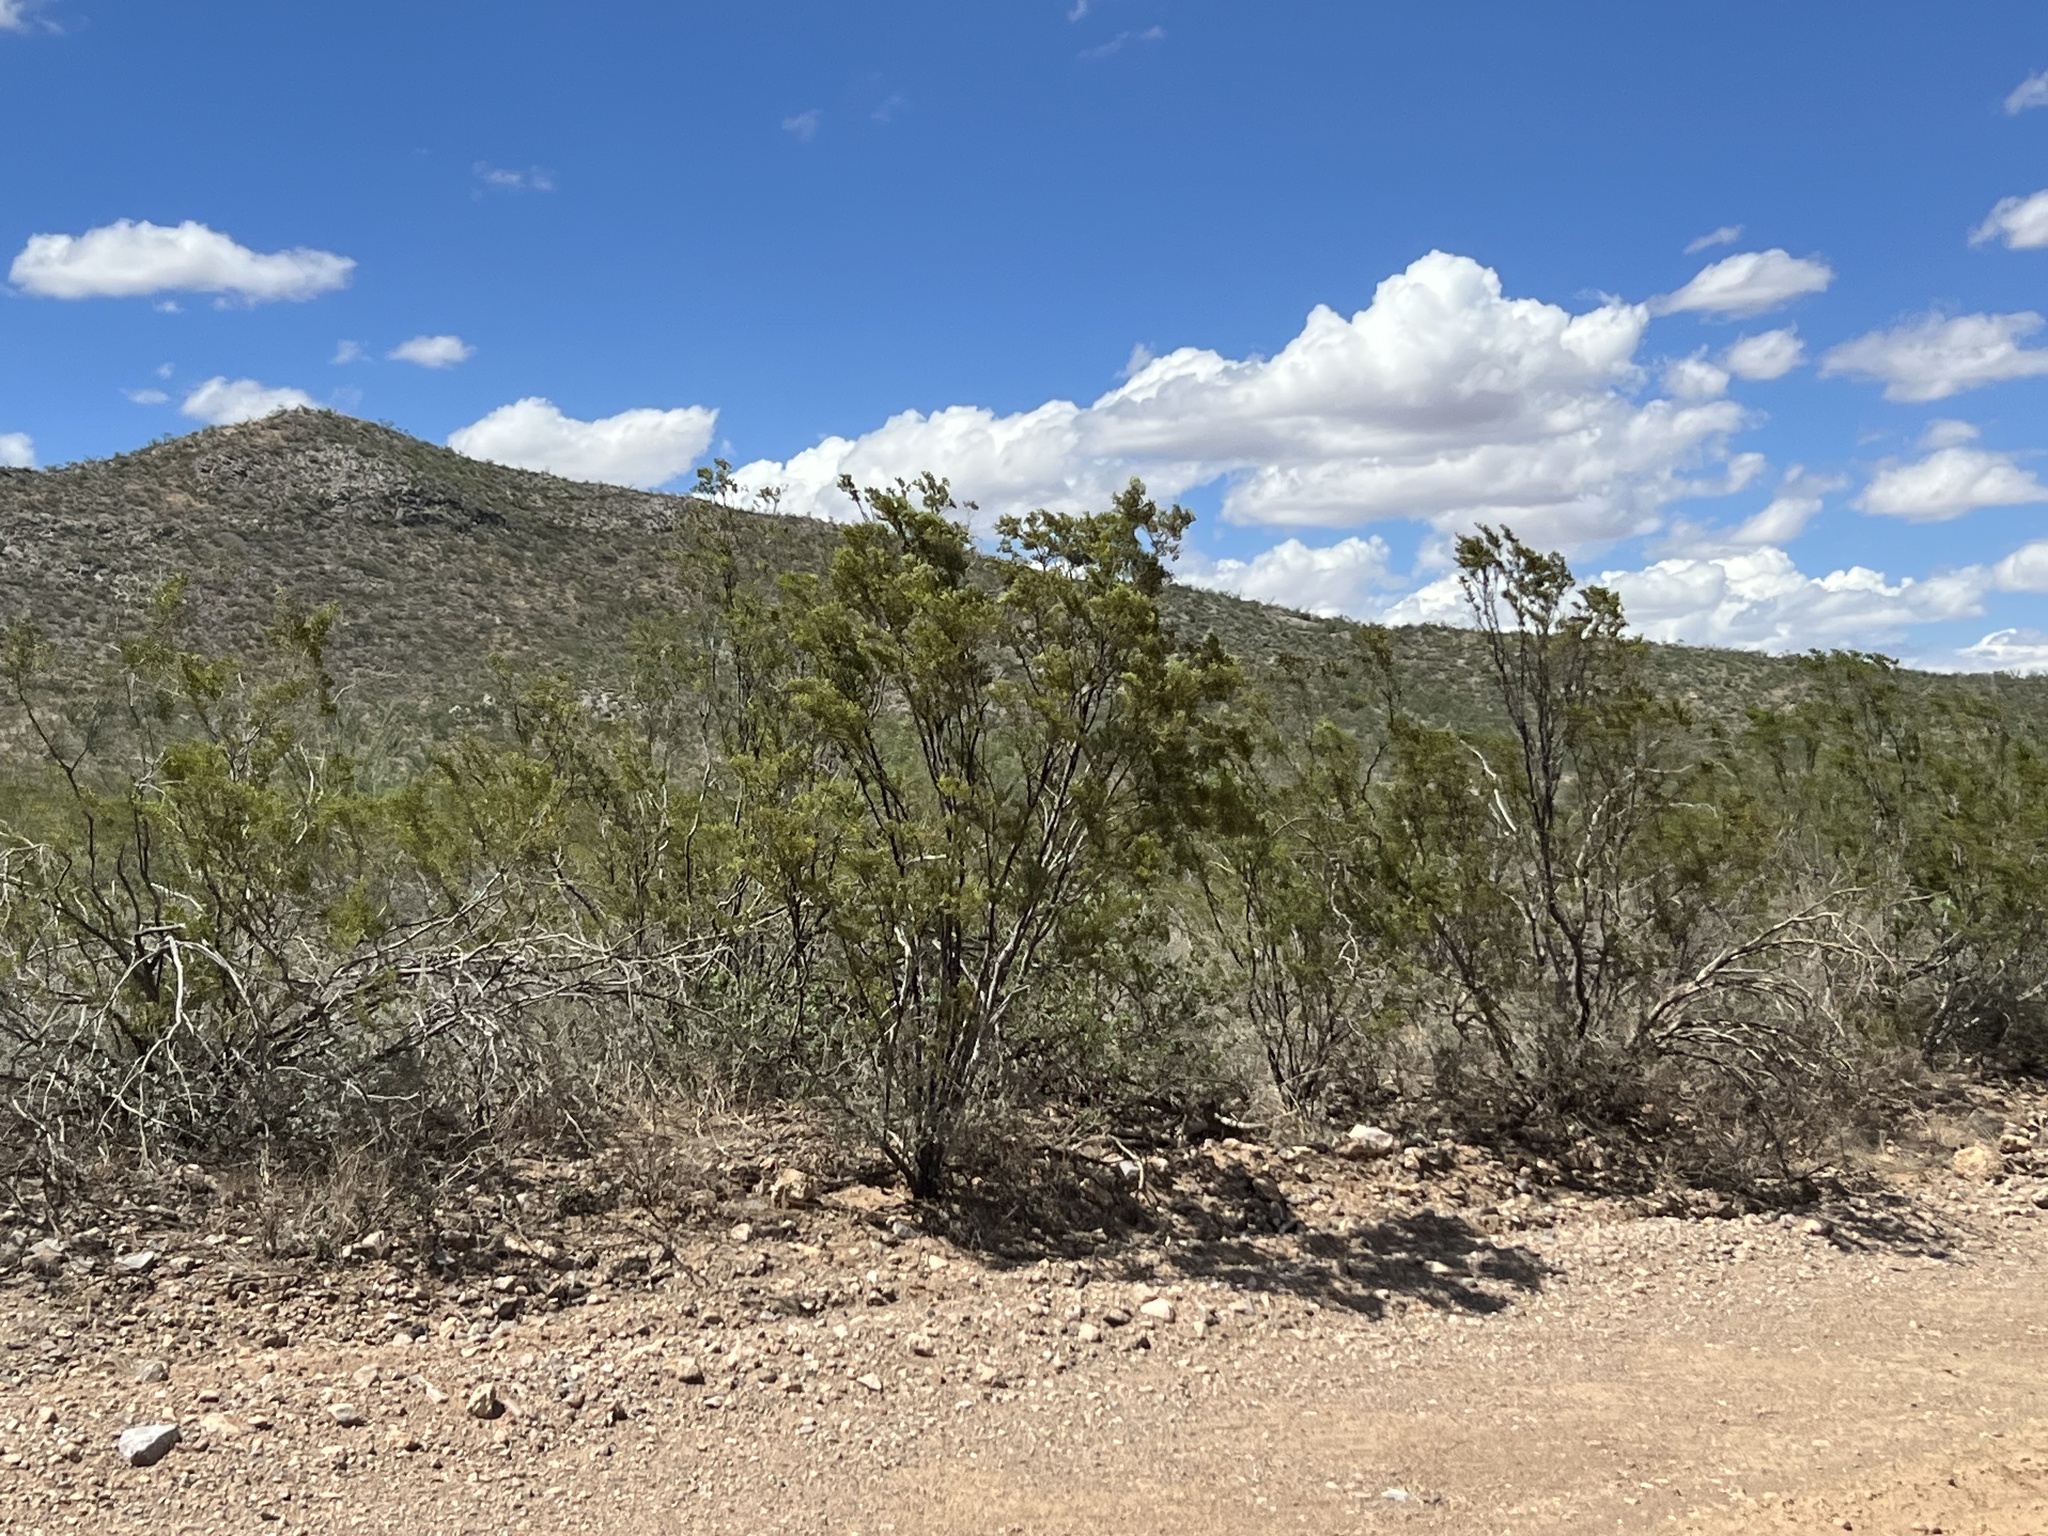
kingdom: Plantae
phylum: Tracheophyta
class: Magnoliopsida
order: Zygophyllales
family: Zygophyllaceae
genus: Larrea
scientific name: Larrea tridentata
